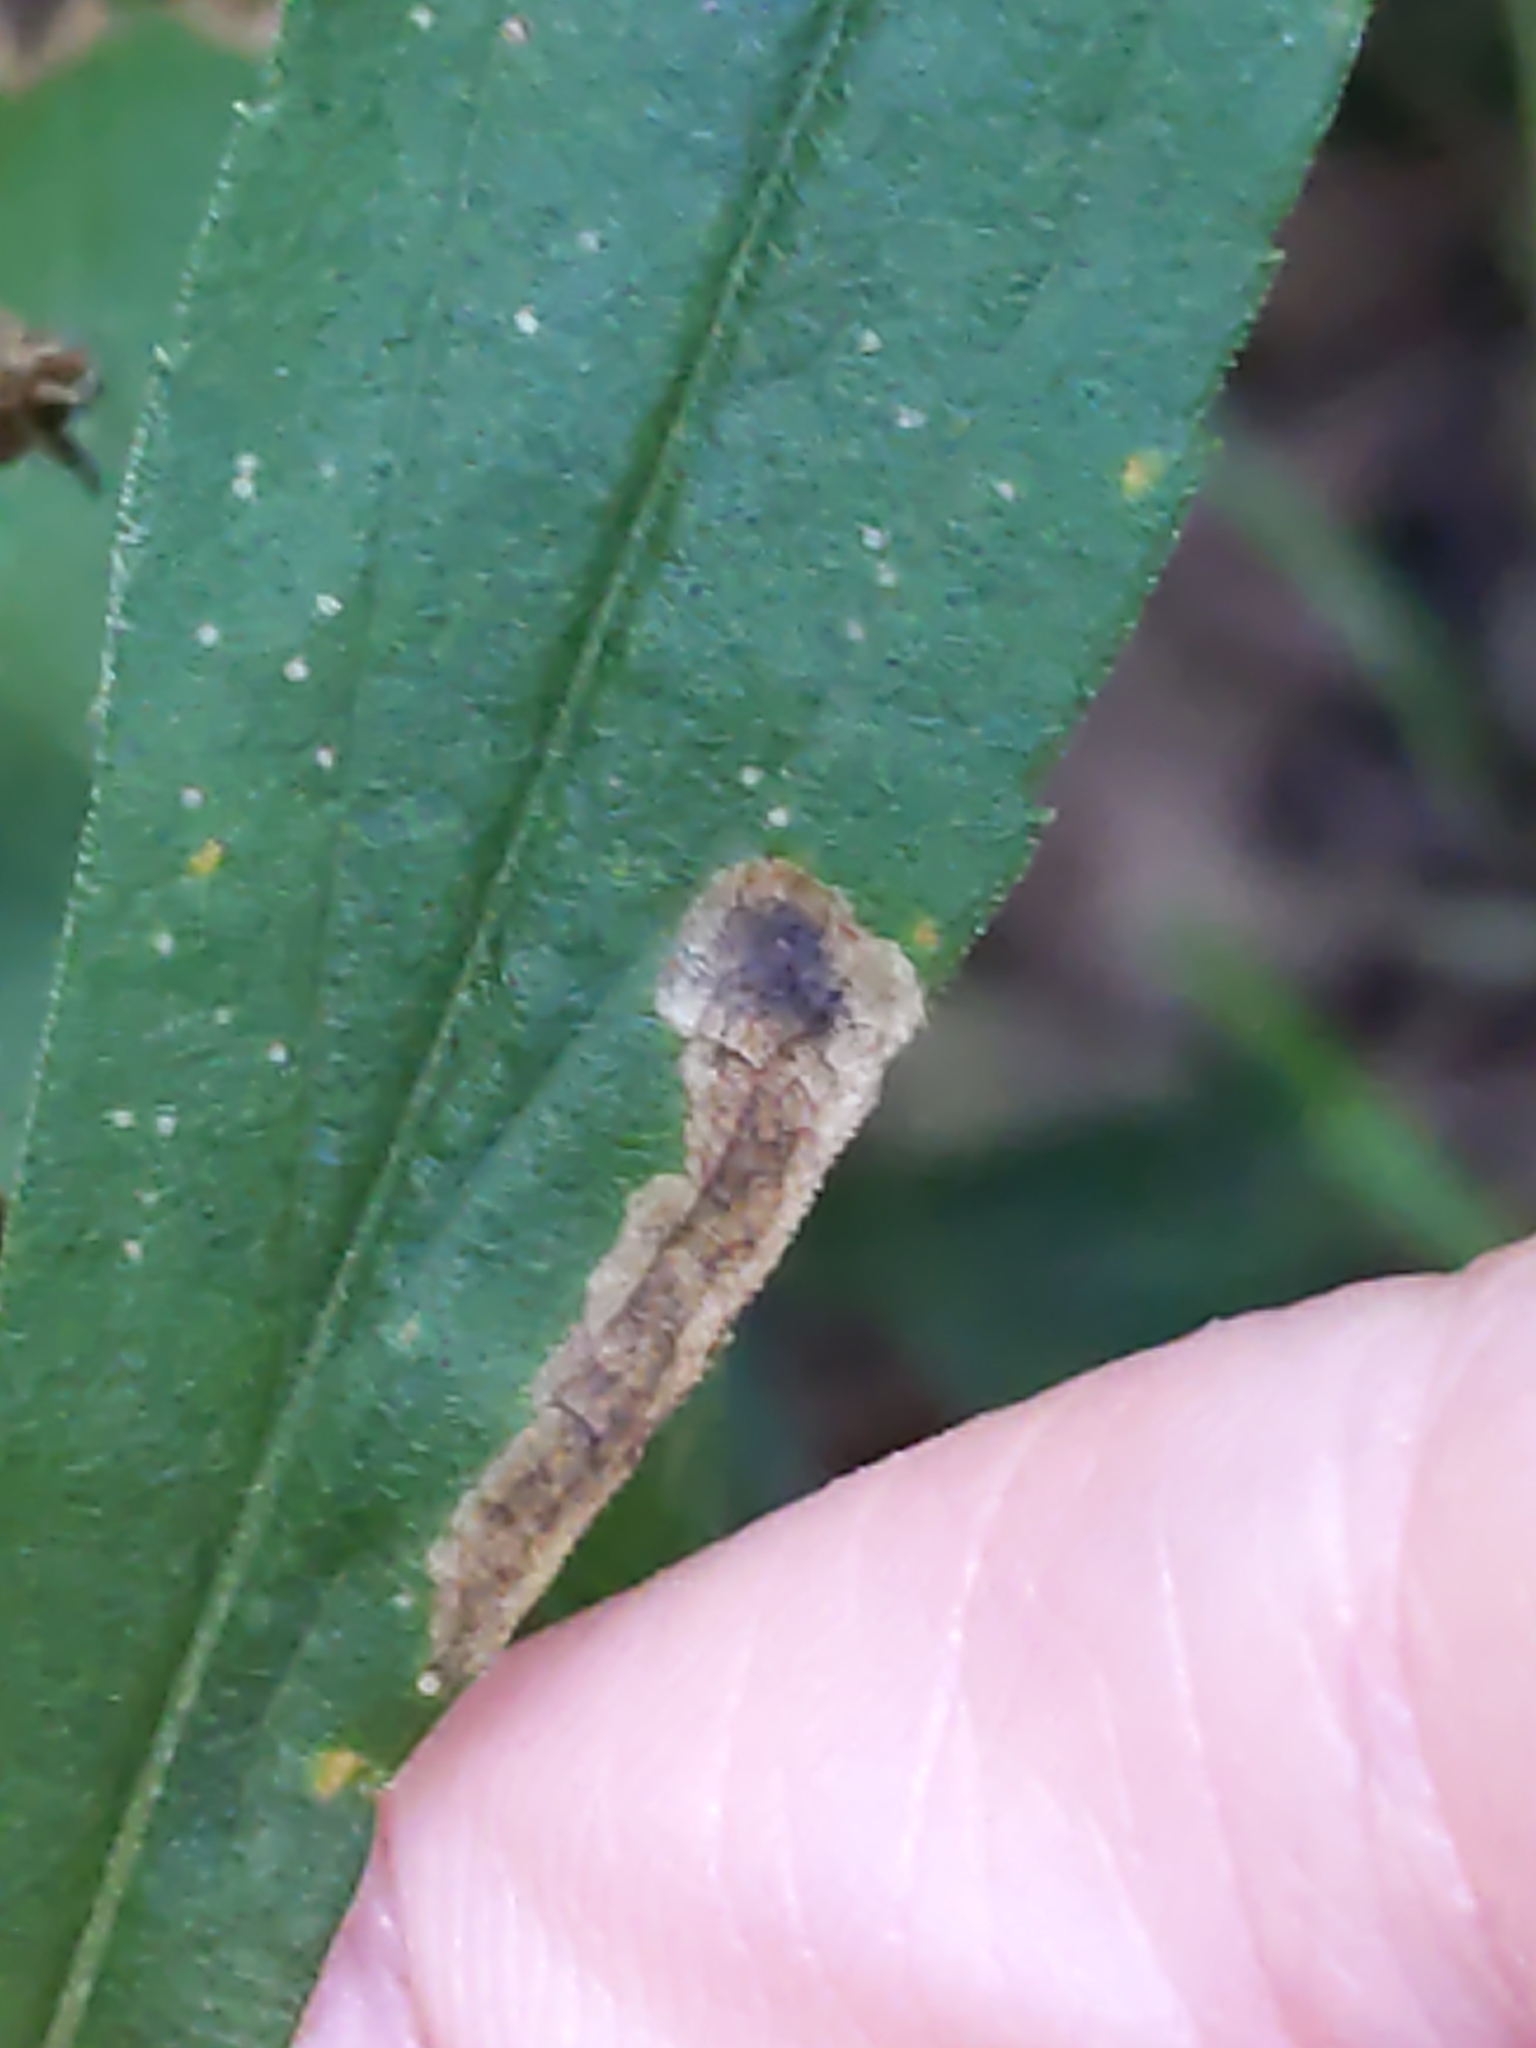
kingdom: Animalia
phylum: Arthropoda
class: Insecta
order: Diptera
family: Agromyzidae
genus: Nemorimyza
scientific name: Nemorimyza posticata
